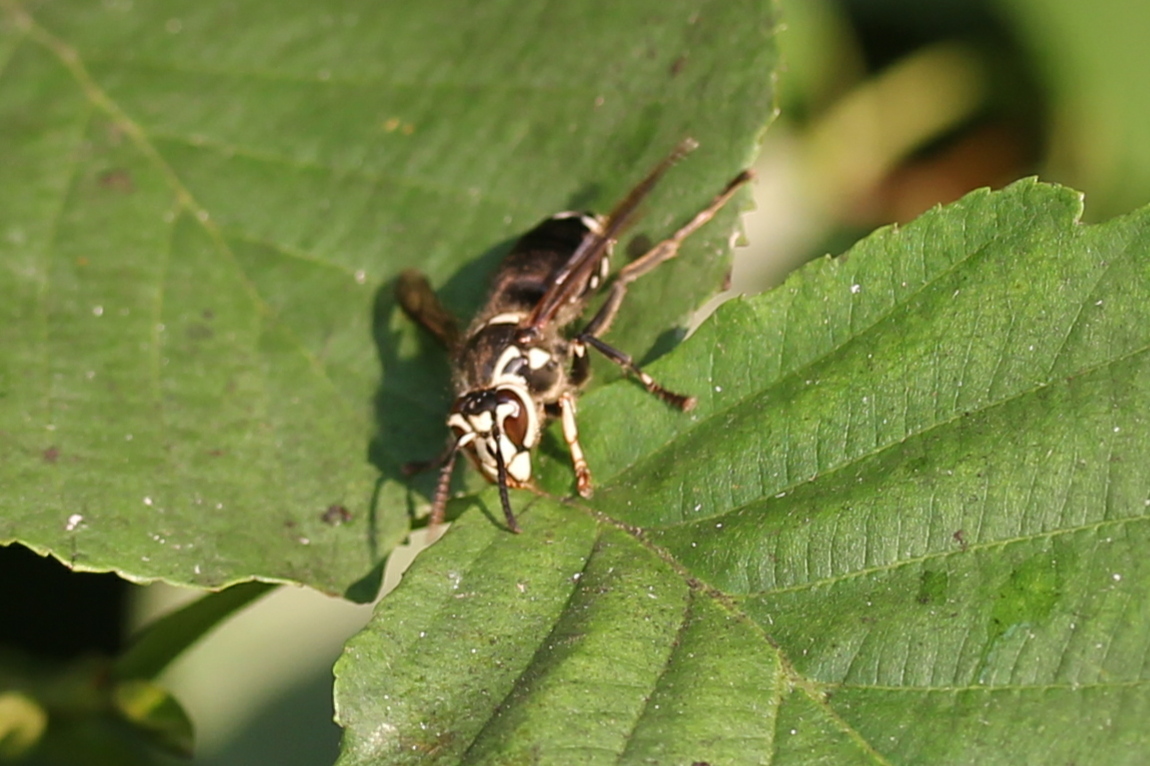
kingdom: Animalia
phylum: Arthropoda
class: Insecta
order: Hymenoptera
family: Vespidae
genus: Dolichovespula
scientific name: Dolichovespula maculata
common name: Bald-faced hornet
